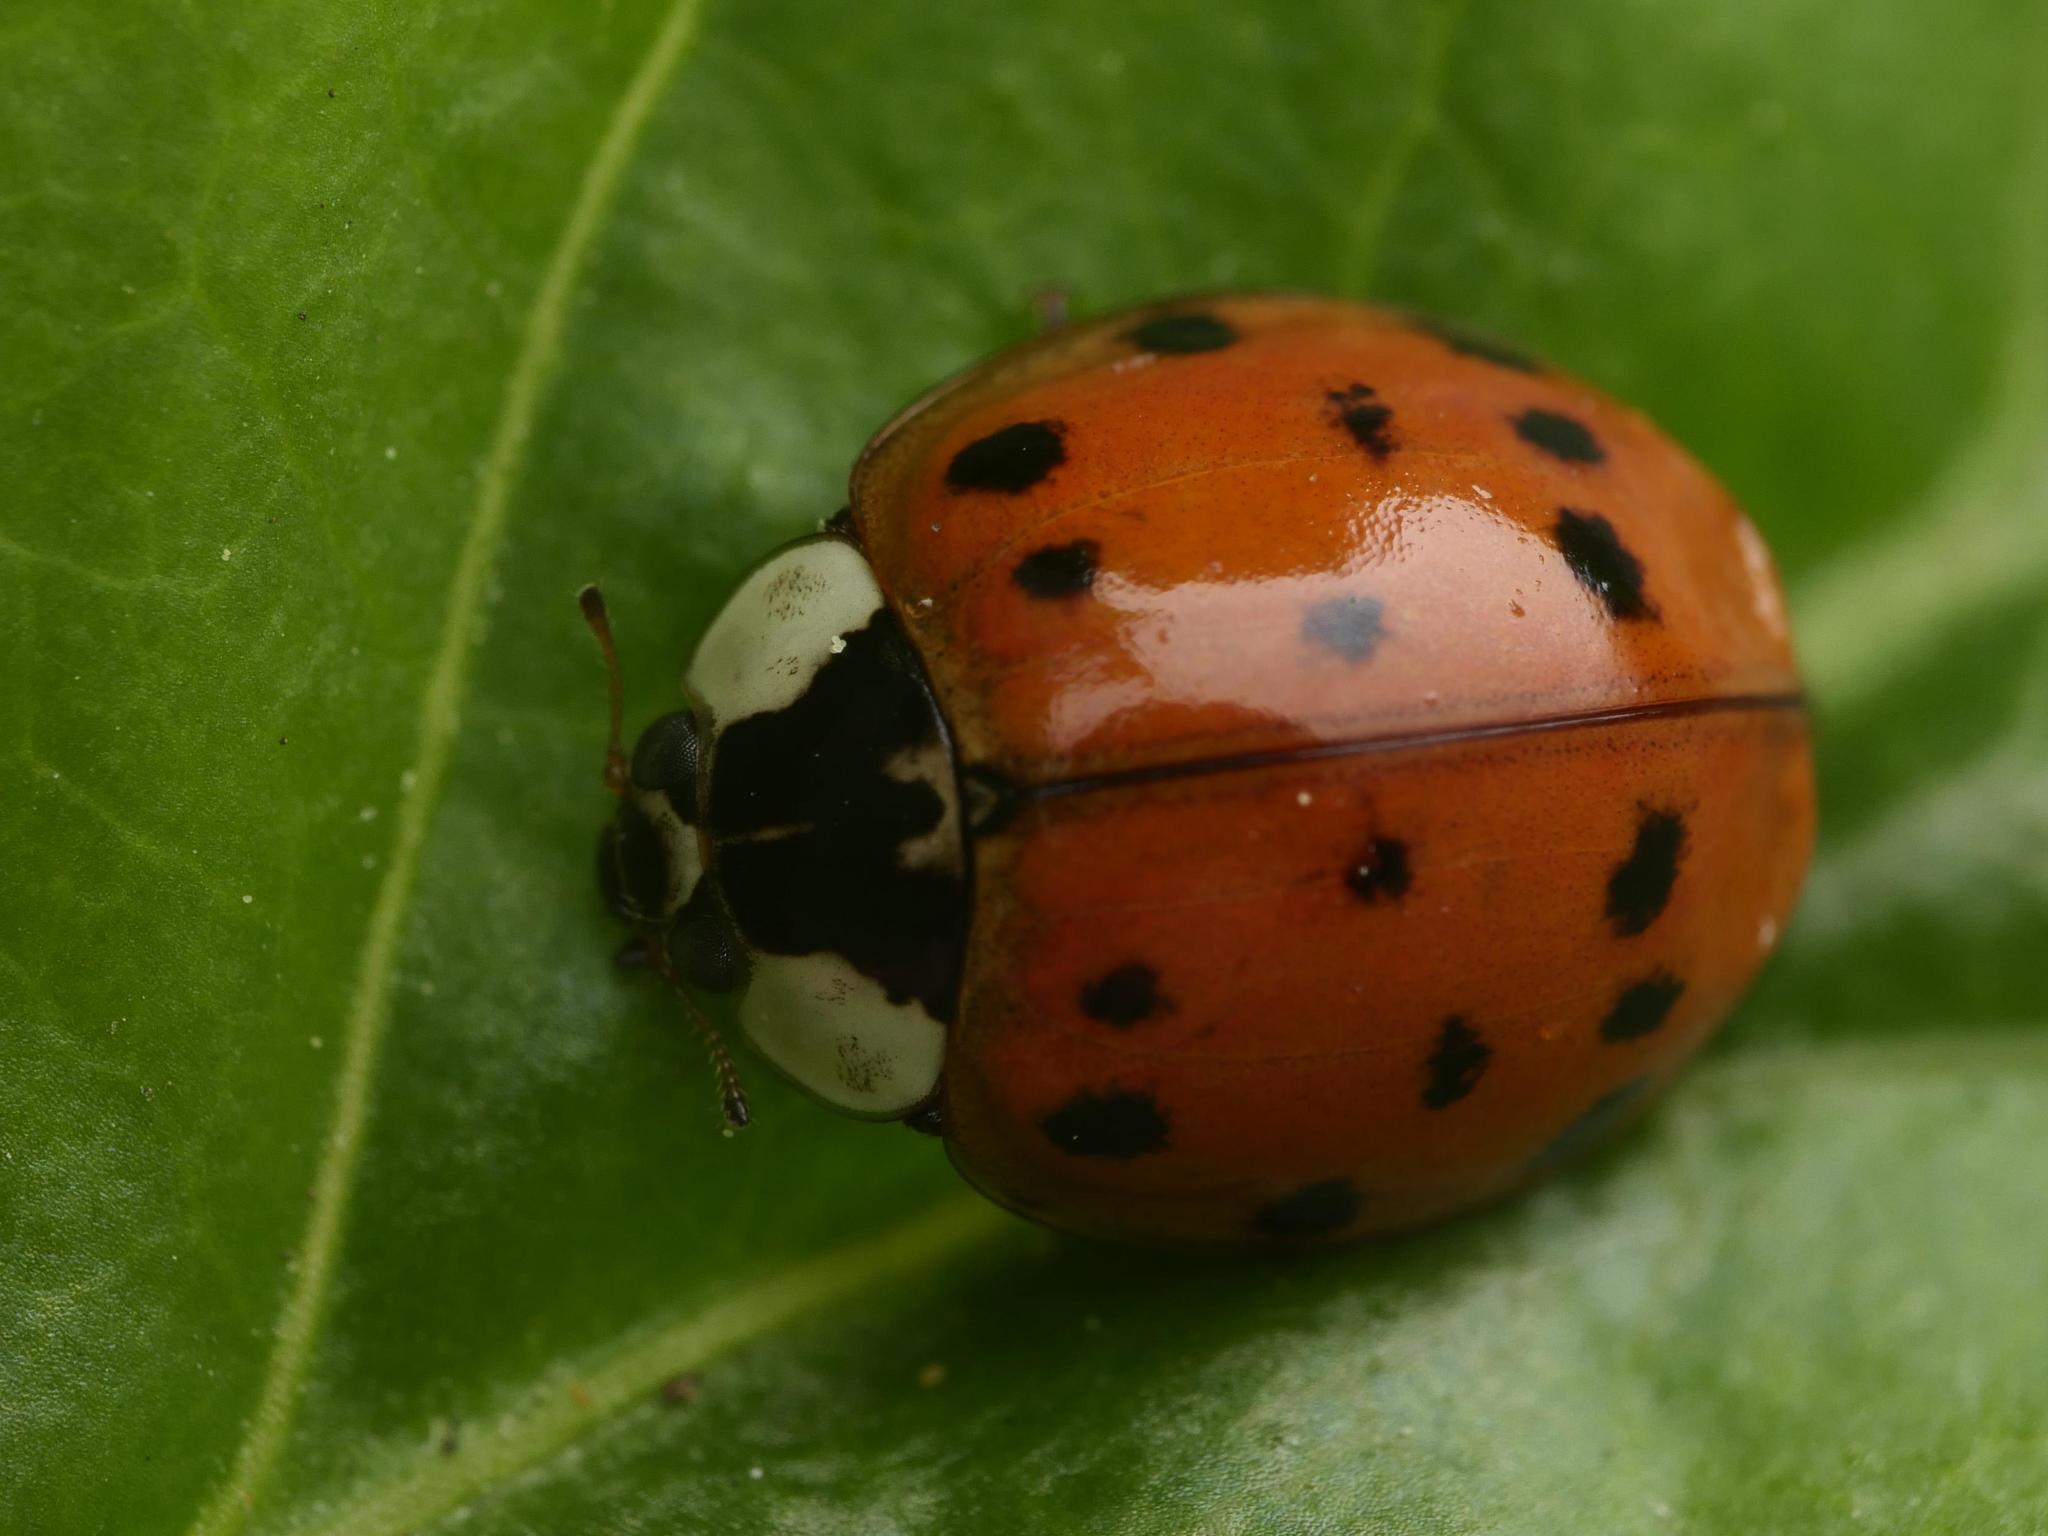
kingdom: Animalia
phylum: Arthropoda
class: Insecta
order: Coleoptera
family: Coccinellidae
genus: Harmonia
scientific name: Harmonia axyridis
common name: Harlequin ladybird
